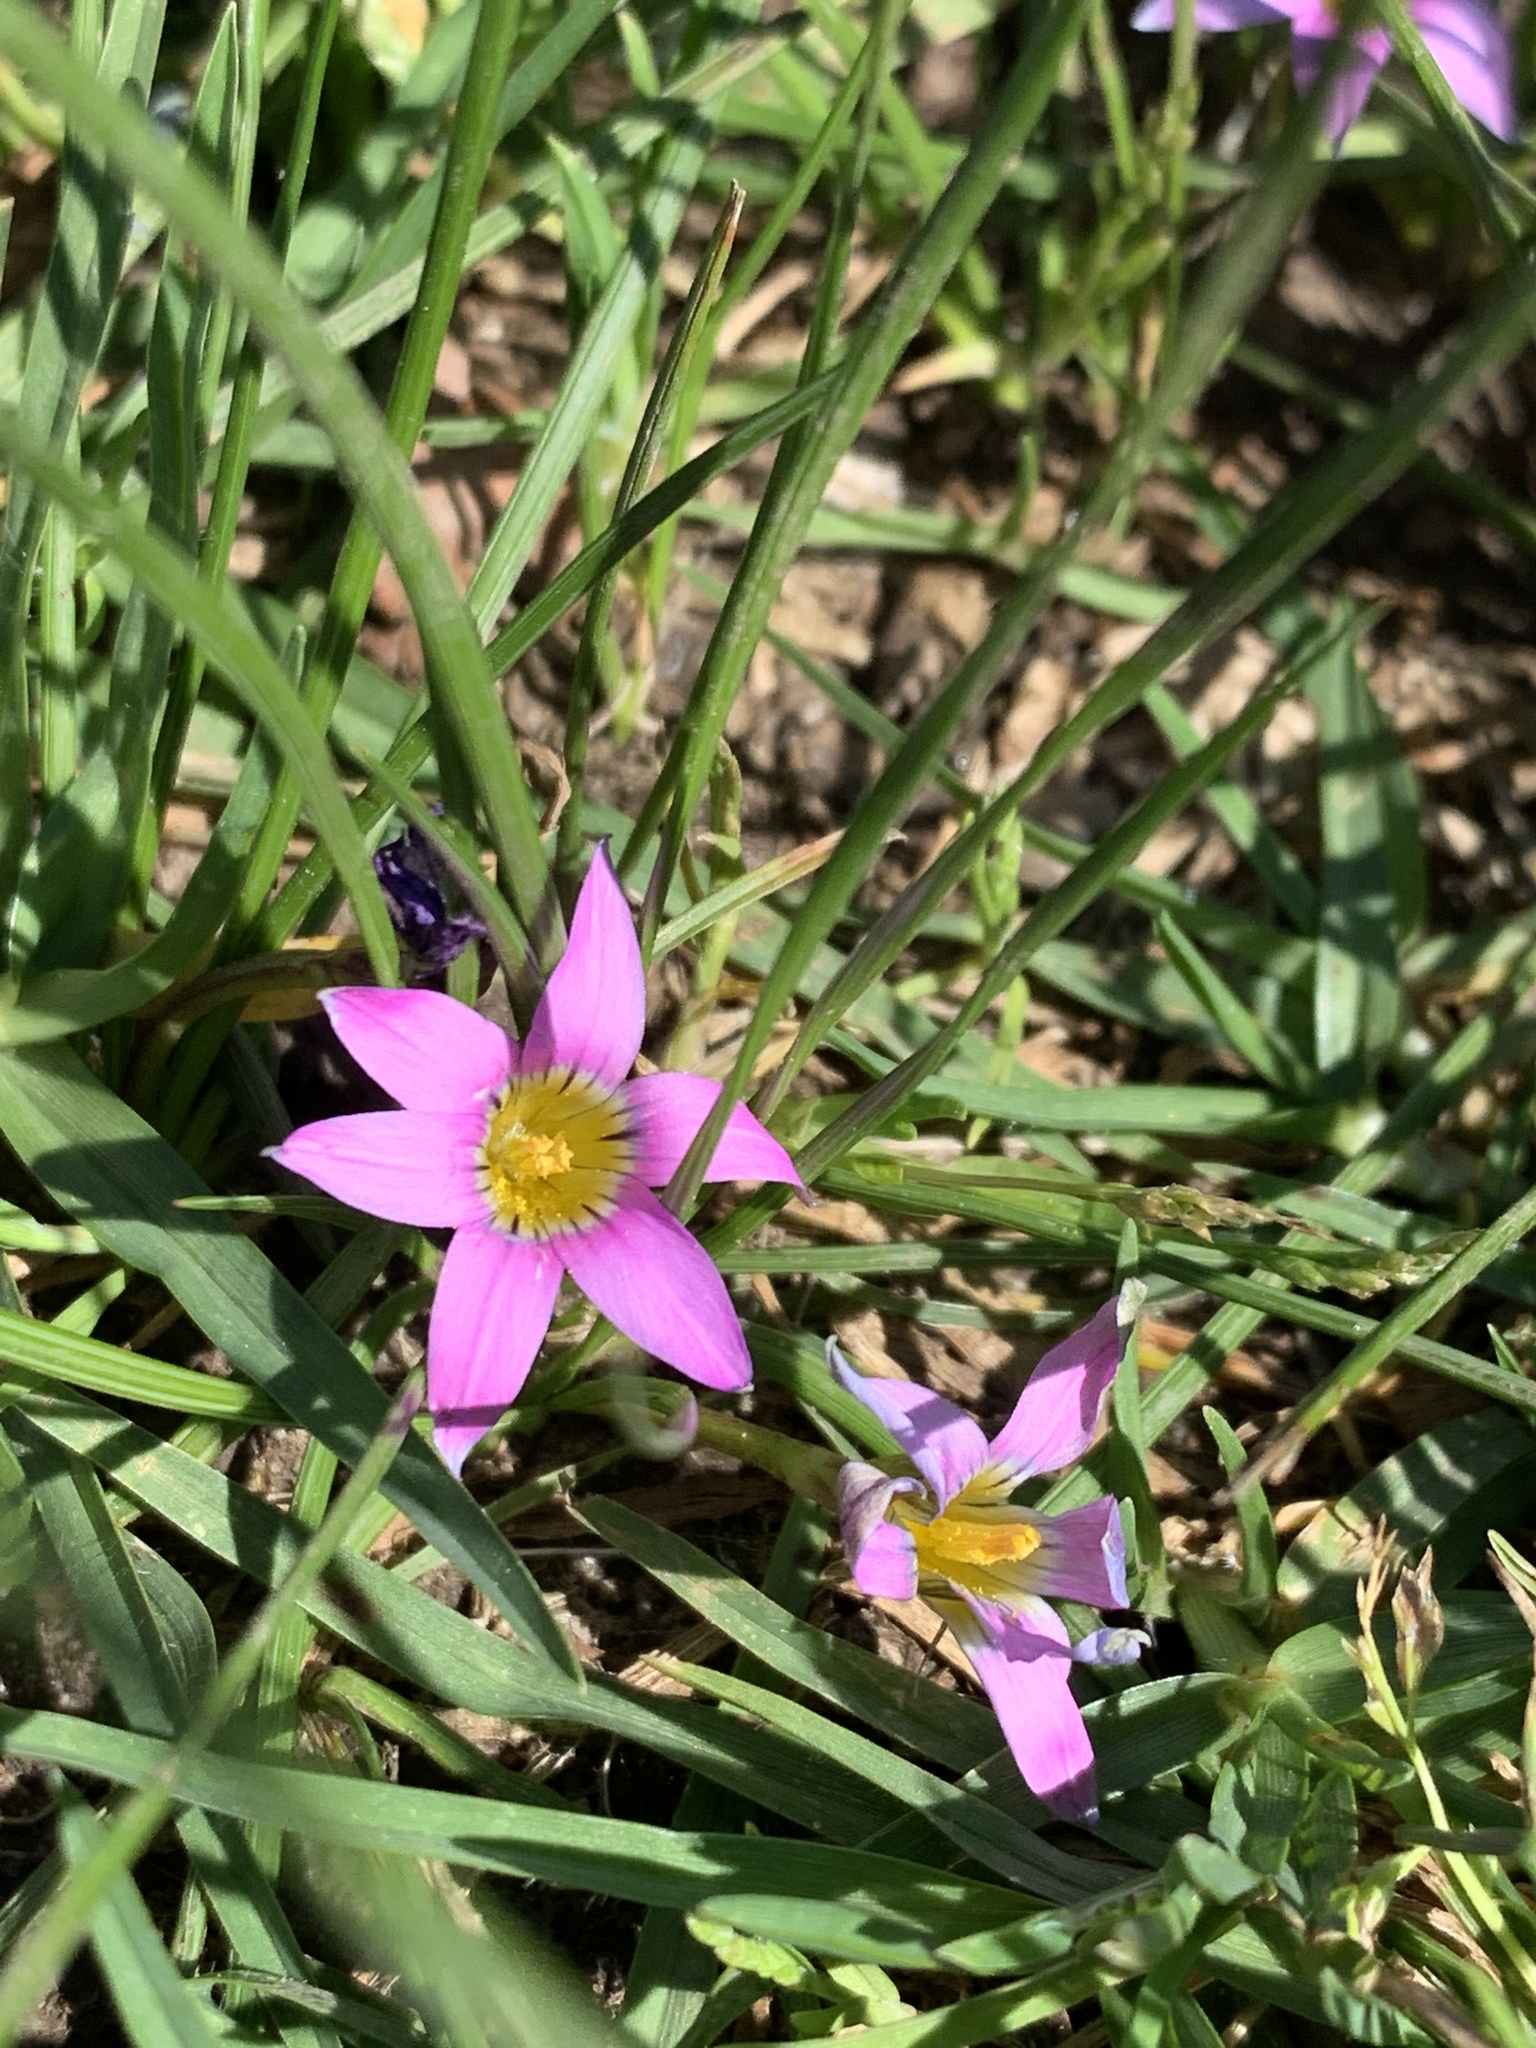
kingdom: Plantae
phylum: Tracheophyta
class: Liliopsida
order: Asparagales
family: Iridaceae
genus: Romulea
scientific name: Romulea rosea
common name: Oniongrass
